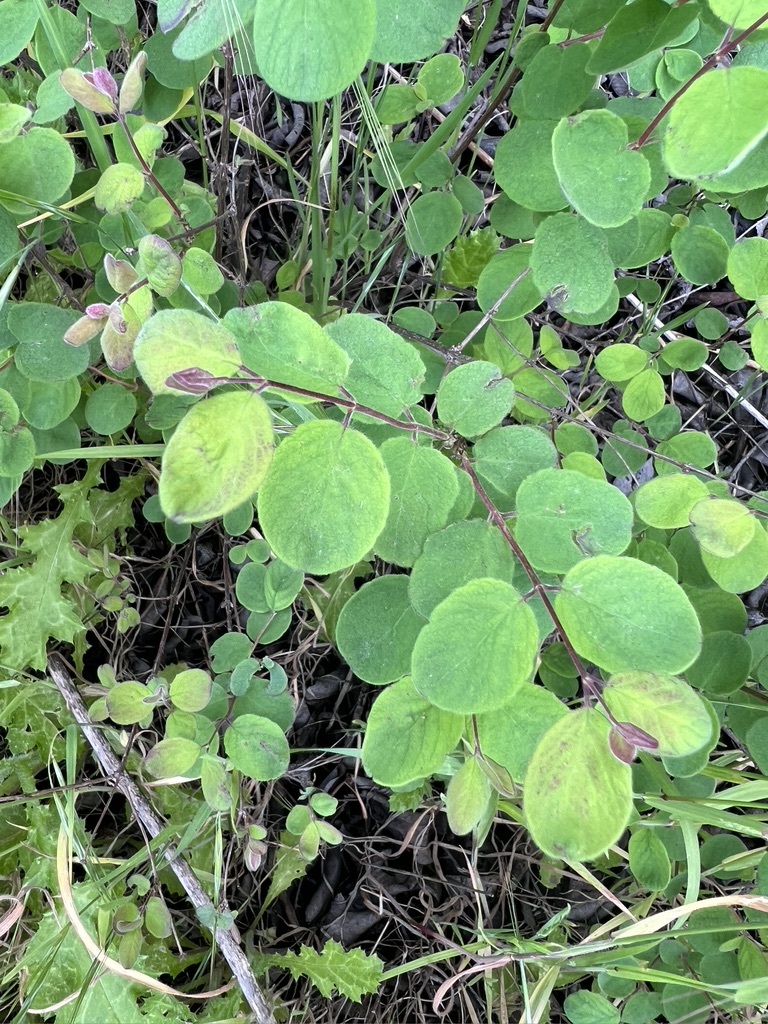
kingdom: Plantae
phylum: Tracheophyta
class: Magnoliopsida
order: Dipsacales
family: Caprifoliaceae
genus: Symphoricarpos
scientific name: Symphoricarpos mollis
